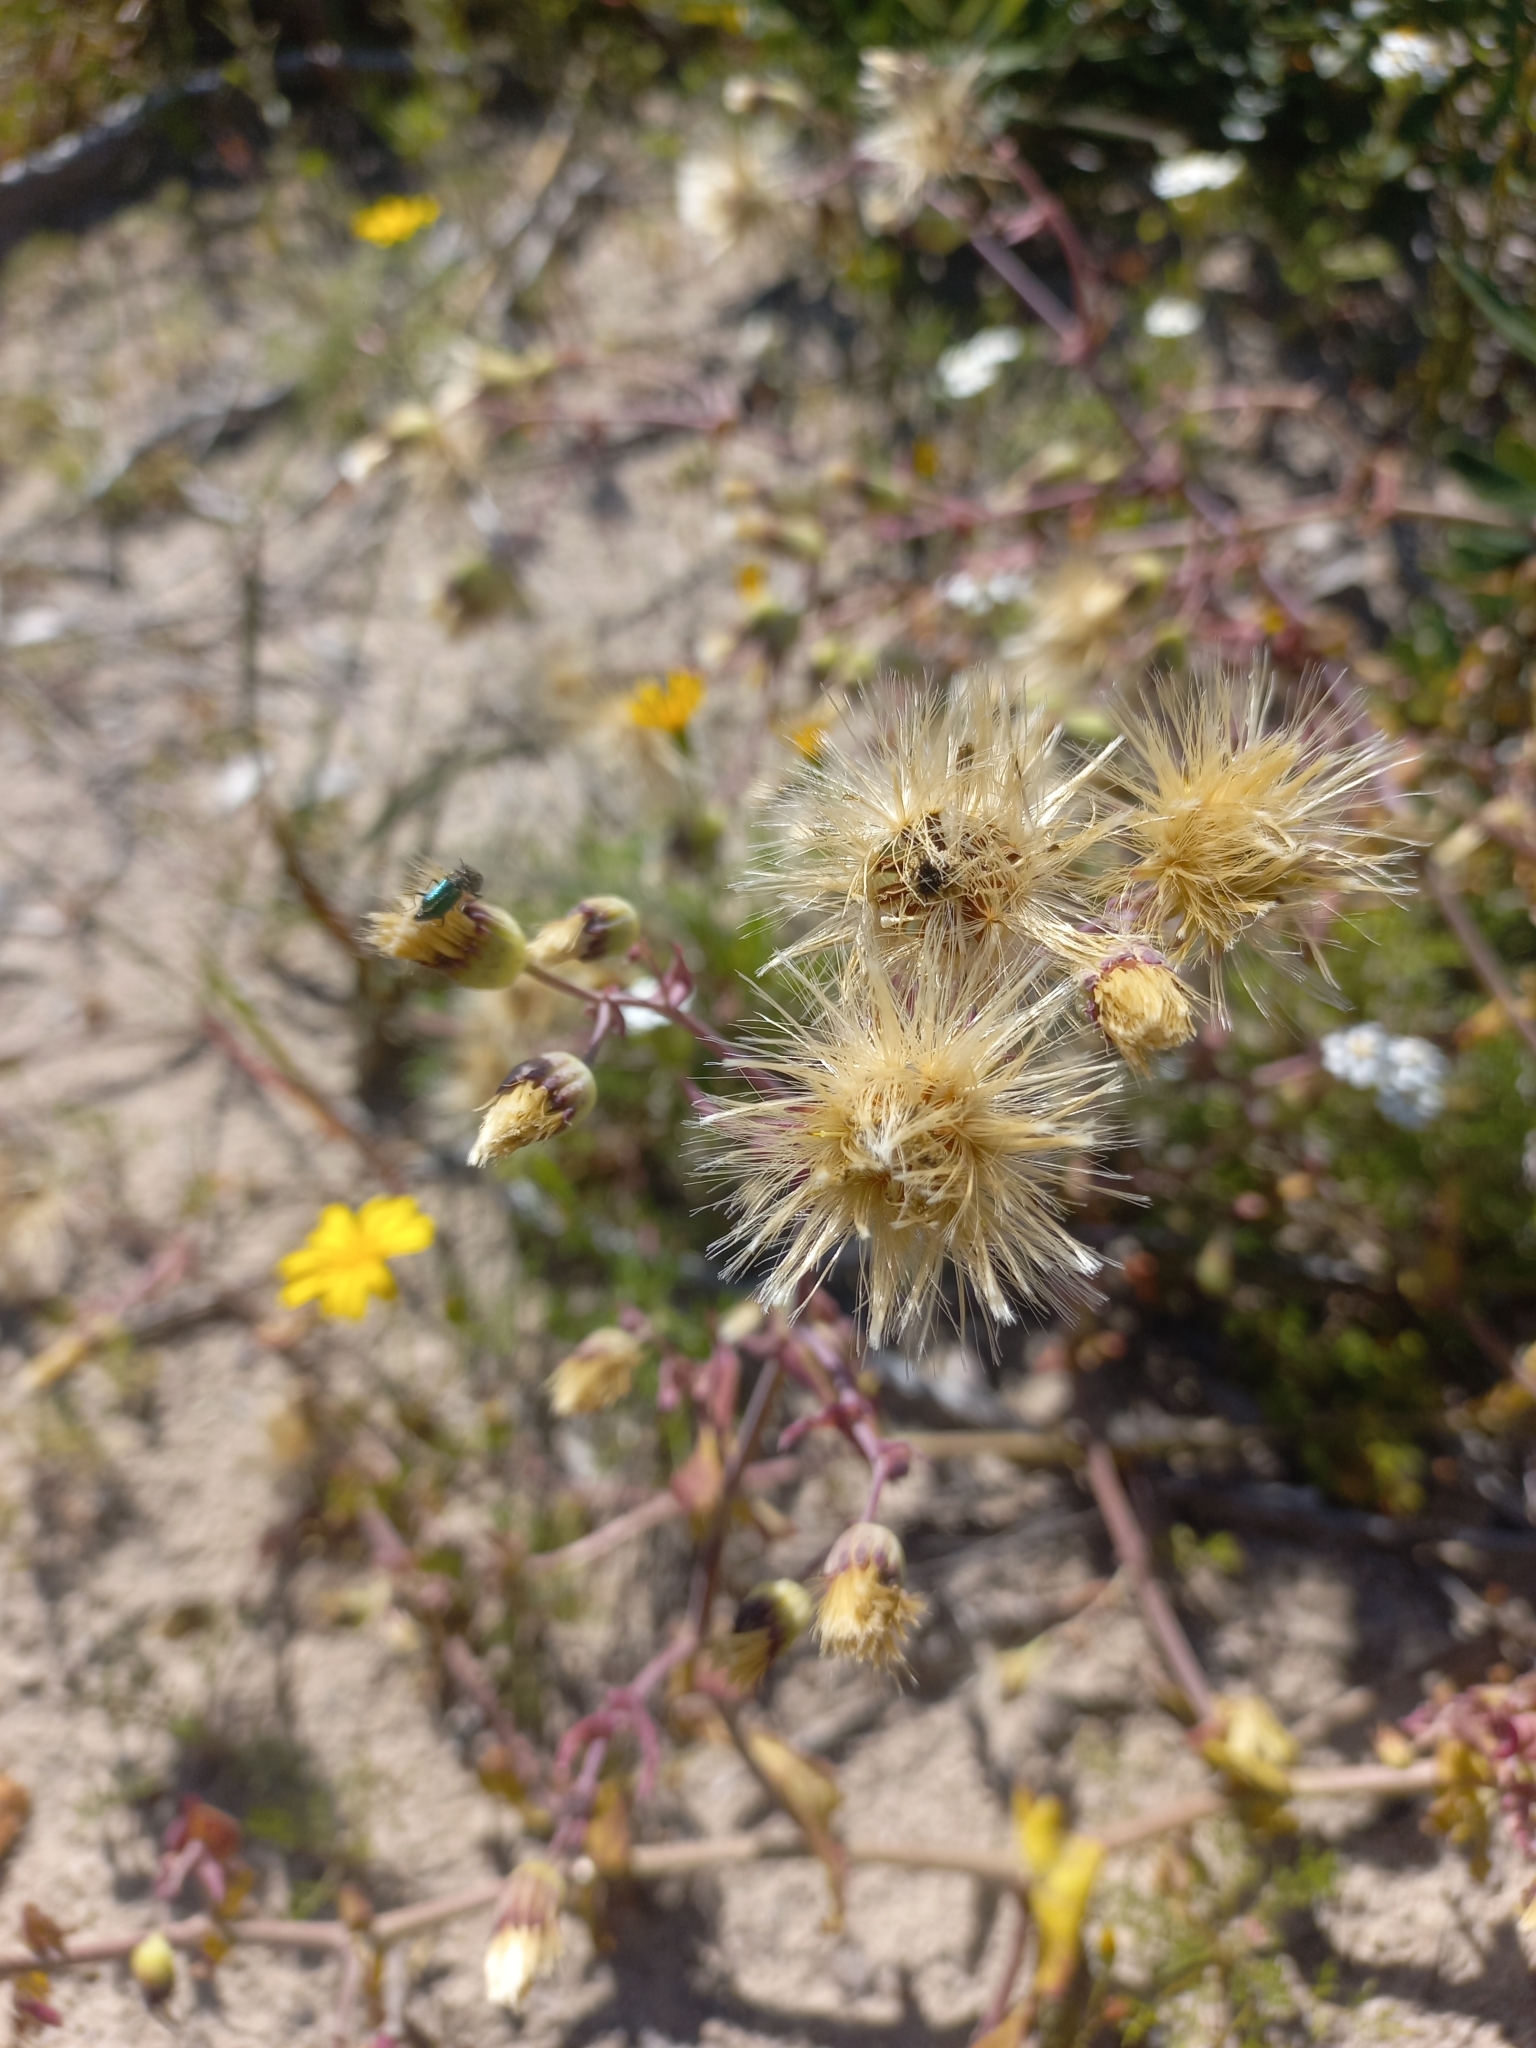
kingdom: Plantae
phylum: Tracheophyta
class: Magnoliopsida
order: Asterales
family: Asteraceae
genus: Othonna
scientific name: Othonna undulosa
